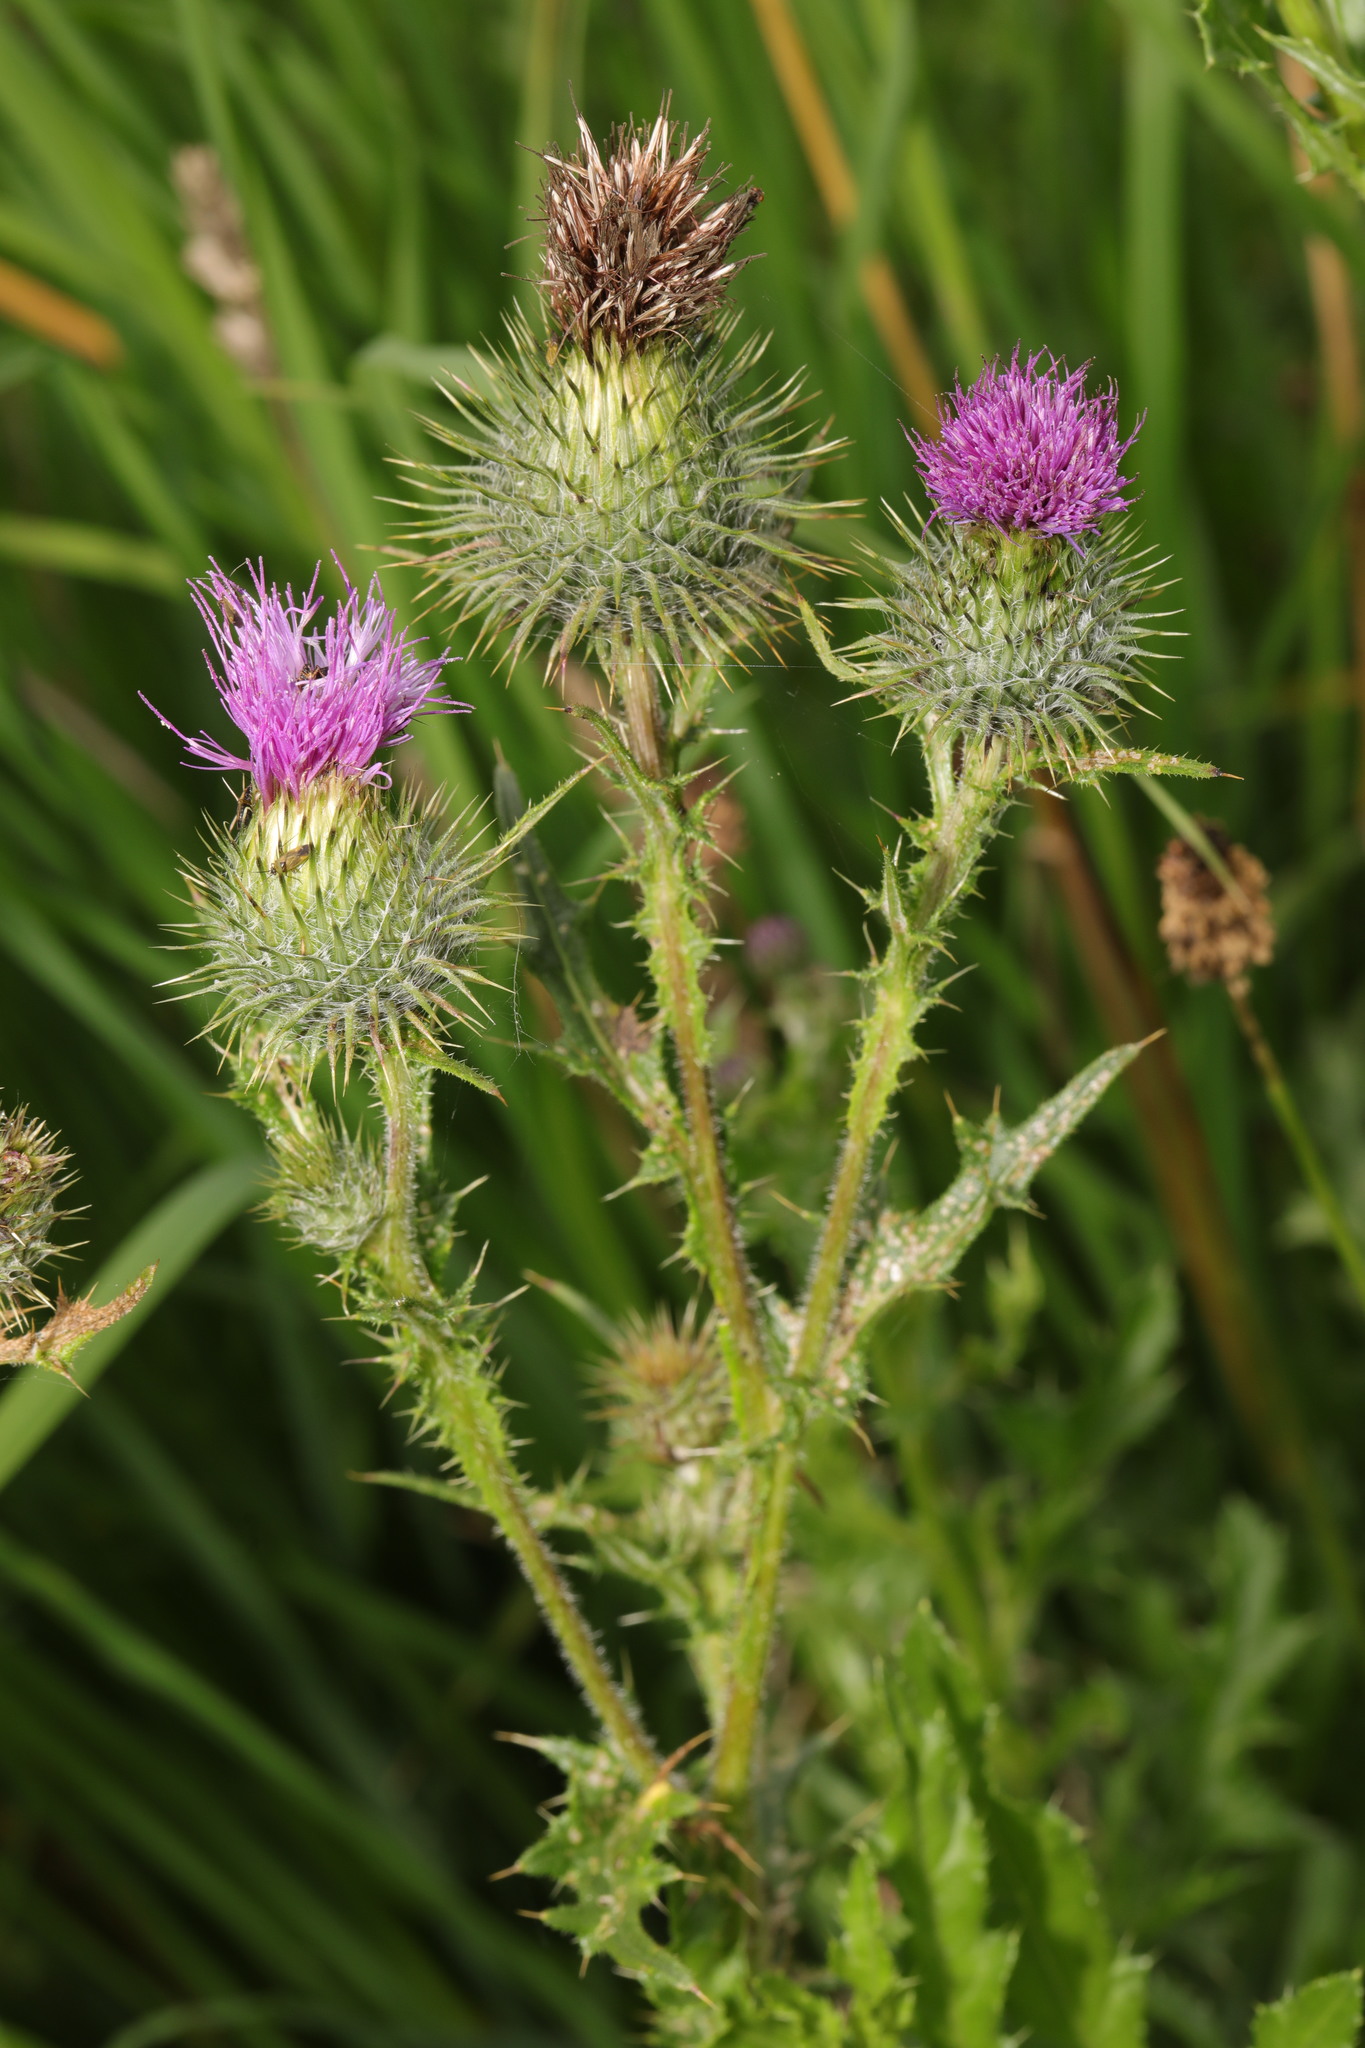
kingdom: Plantae
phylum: Tracheophyta
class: Magnoliopsida
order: Asterales
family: Asteraceae
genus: Cirsium
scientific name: Cirsium vulgare
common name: Bull thistle
